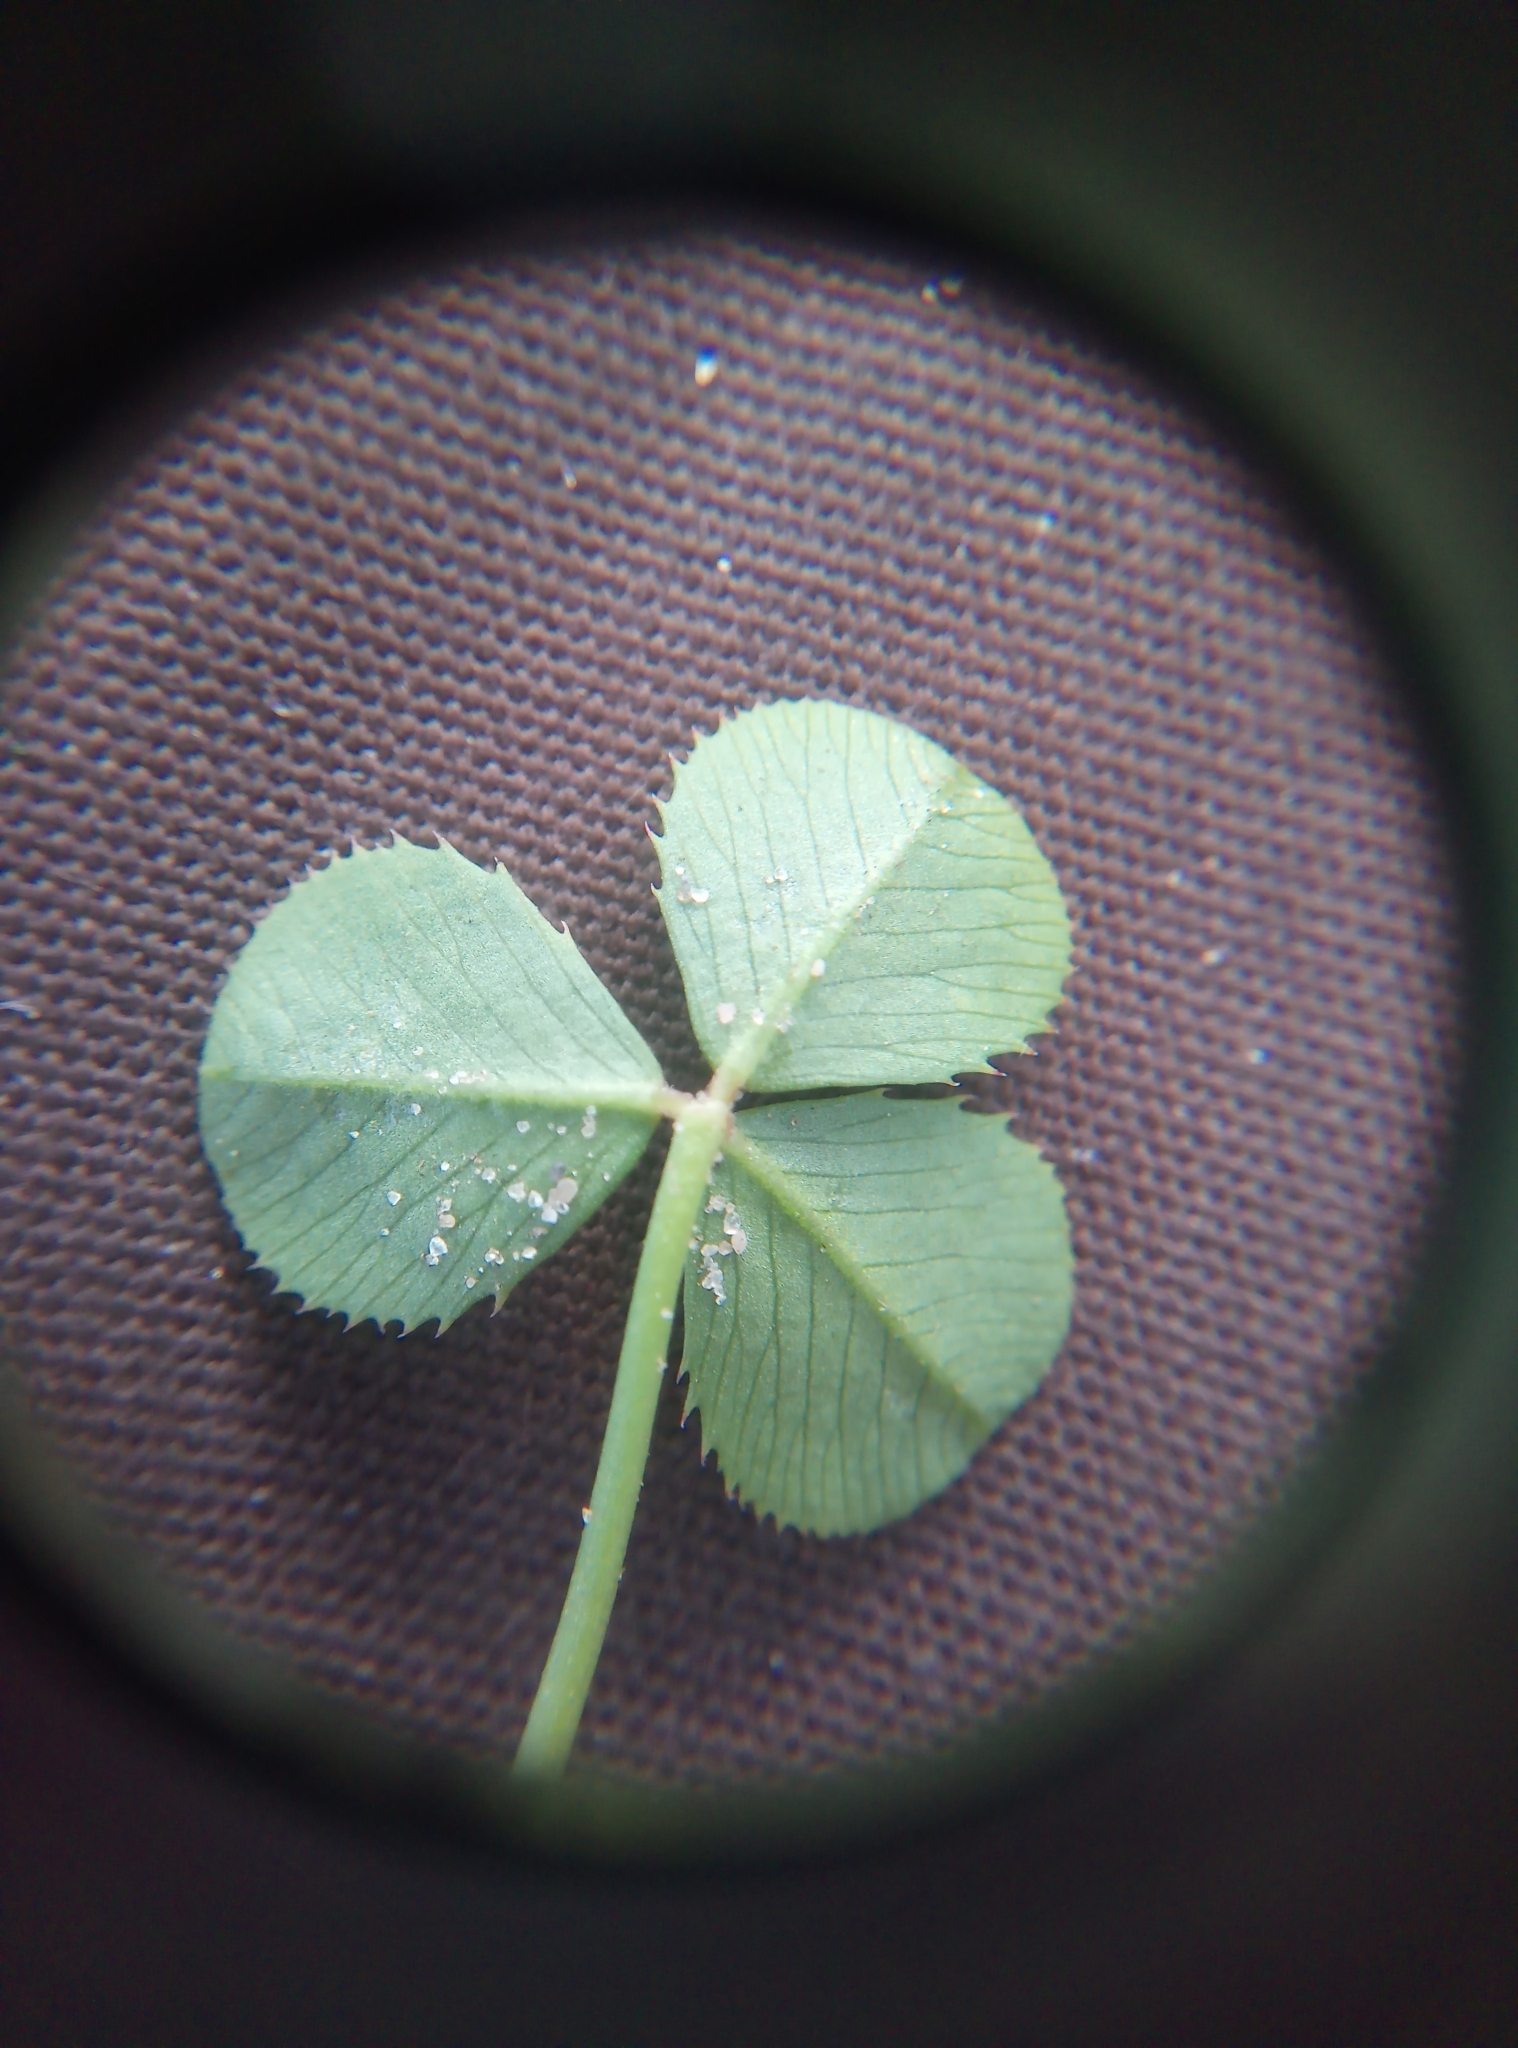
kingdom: Plantae
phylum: Tracheophyta
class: Magnoliopsida
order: Fabales
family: Fabaceae
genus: Trifolium
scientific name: Trifolium repens
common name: White clover
